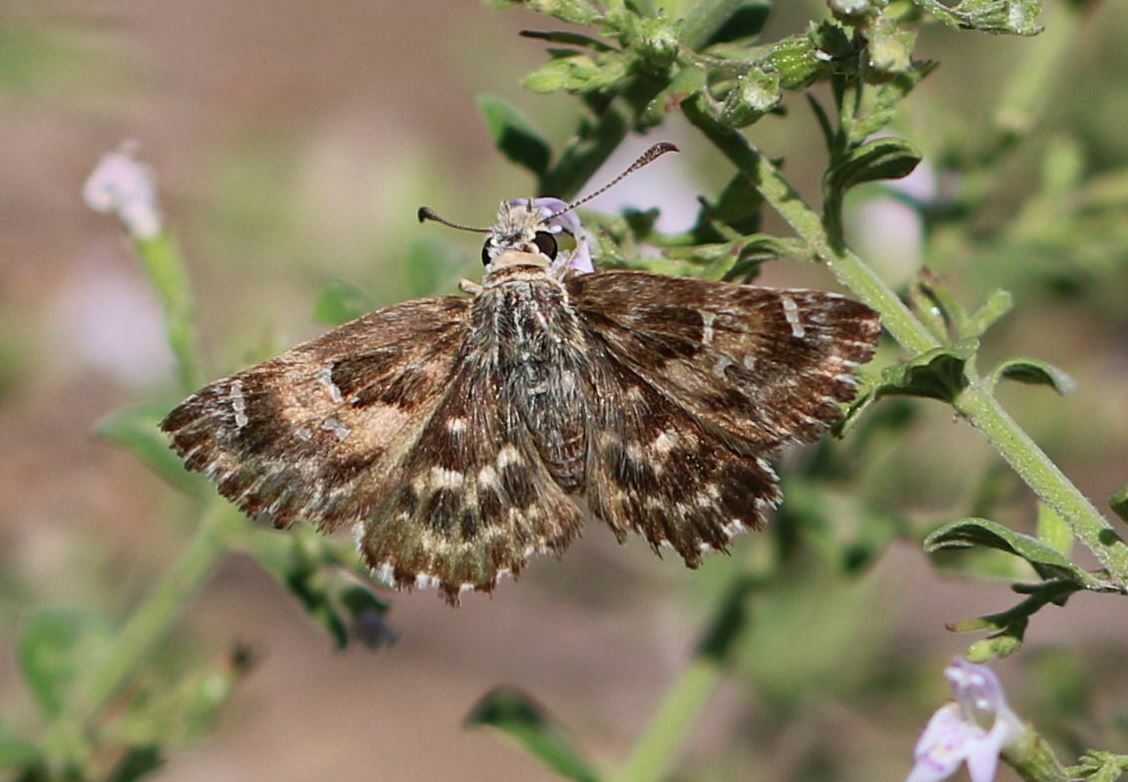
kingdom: Animalia
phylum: Arthropoda
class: Insecta
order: Lepidoptera
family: Hesperiidae
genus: Carcharodus
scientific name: Carcharodus alceae
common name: Mallow skipper
